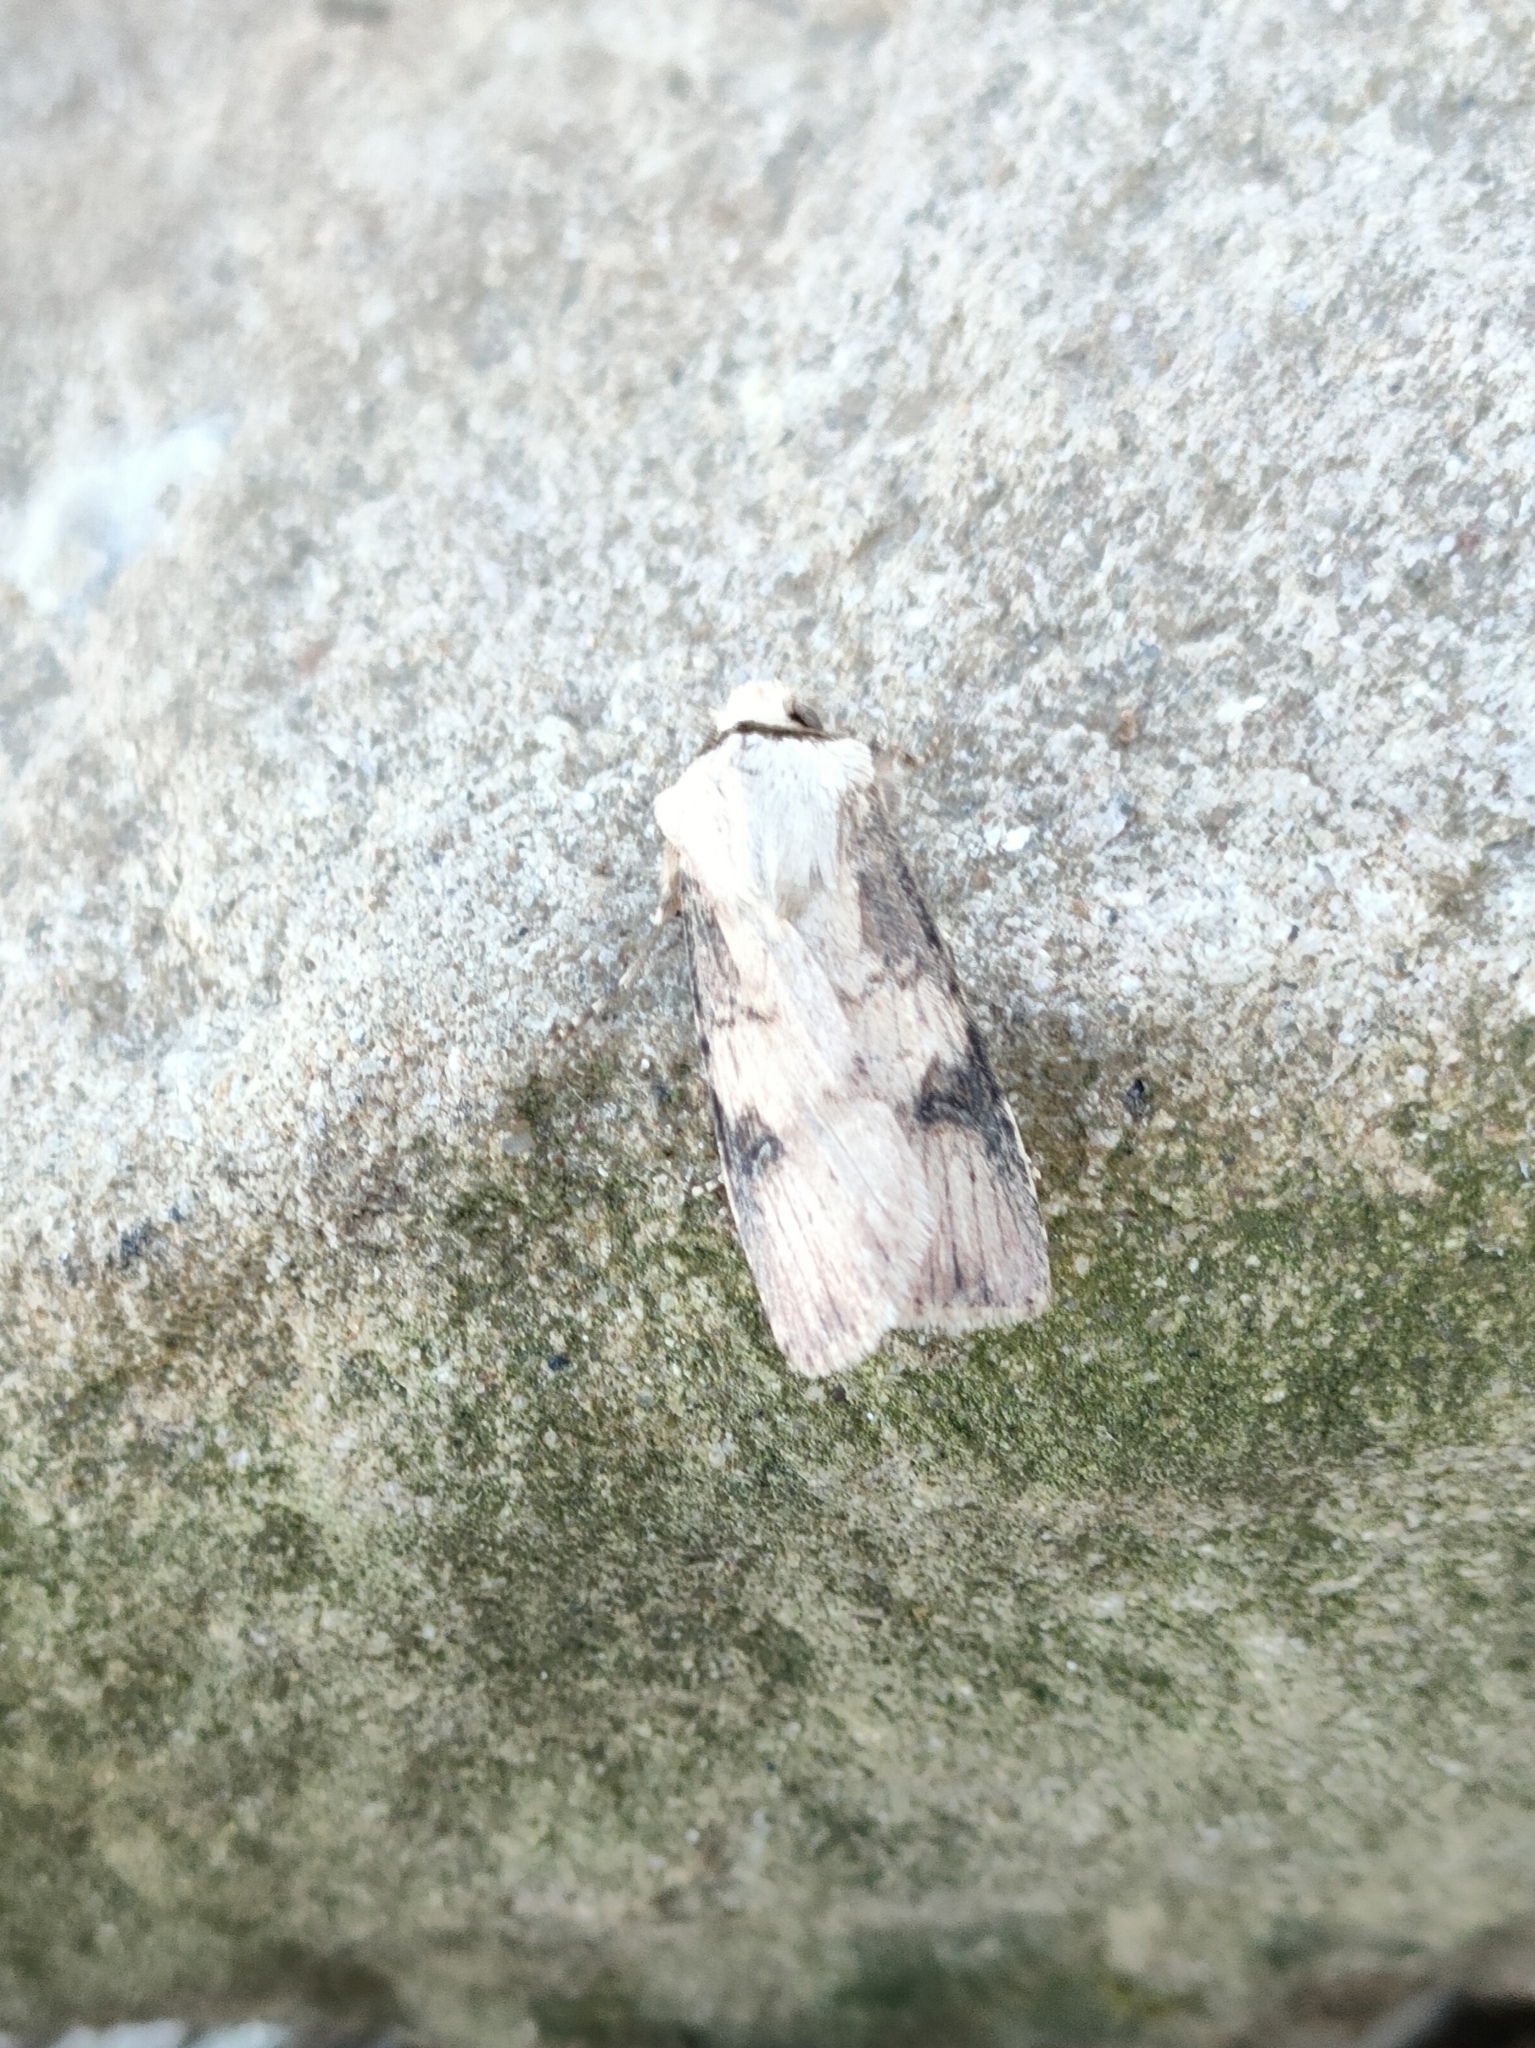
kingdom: Animalia
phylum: Arthropoda
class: Insecta
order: Lepidoptera
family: Noctuidae
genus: Agrotis
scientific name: Agrotis puta
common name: Shuttle-shaped dart
